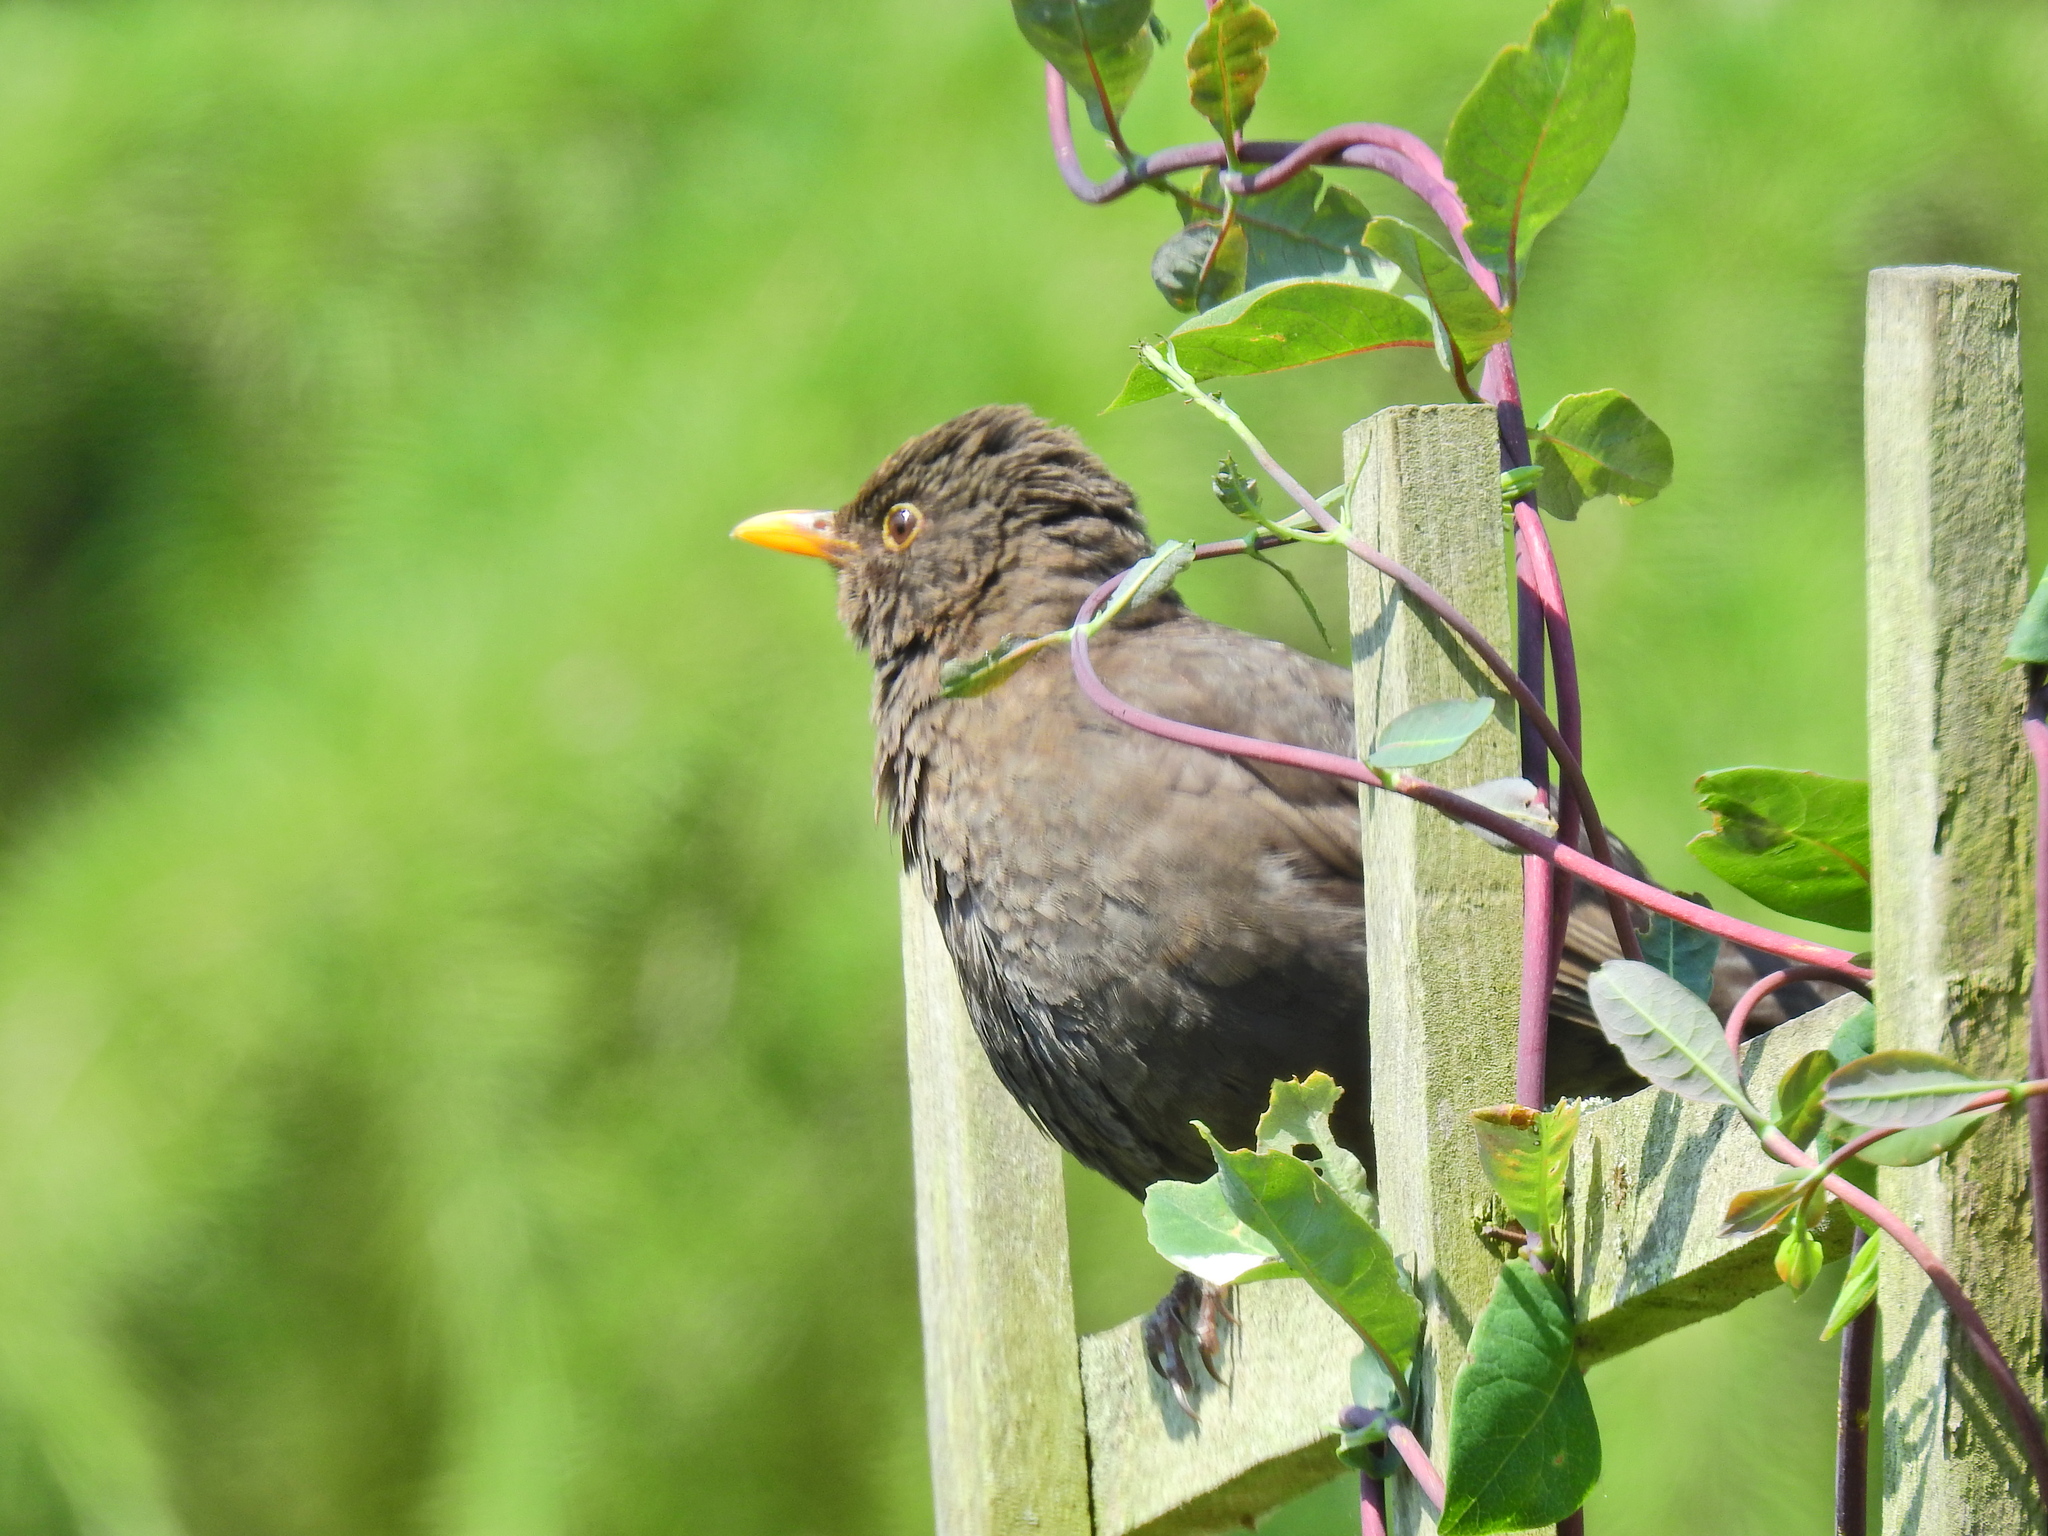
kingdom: Animalia
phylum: Chordata
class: Aves
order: Passeriformes
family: Turdidae
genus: Turdus
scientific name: Turdus merula
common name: Common blackbird
